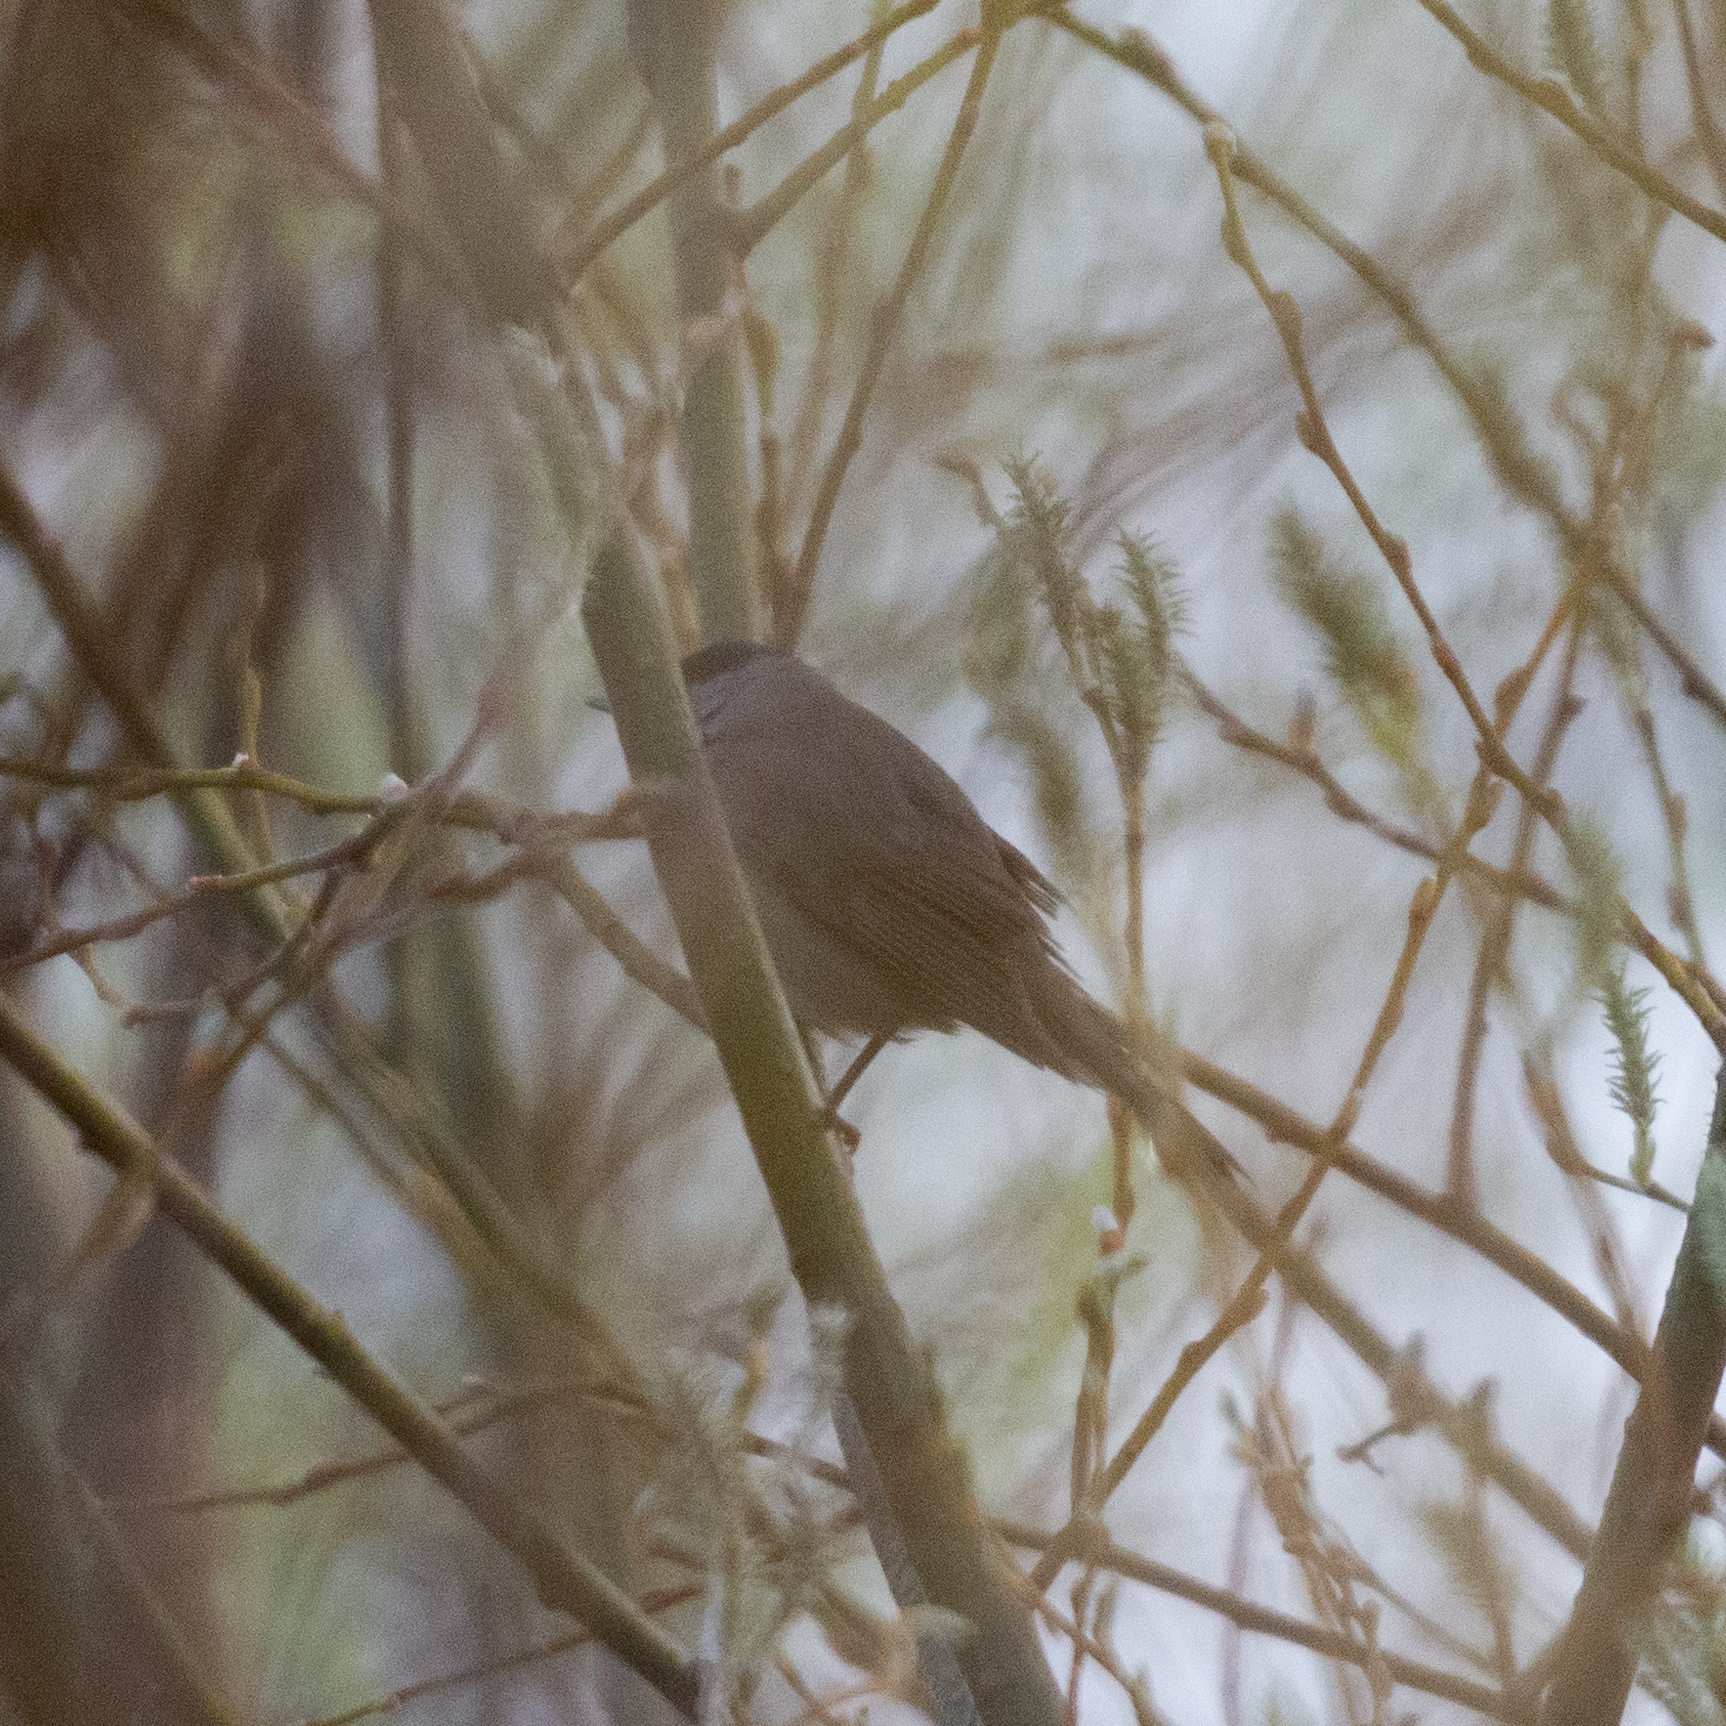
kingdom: Animalia
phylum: Chordata
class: Aves
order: Passeriformes
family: Sylviidae
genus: Sylvia
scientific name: Sylvia atricapilla
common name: Eurasian blackcap
